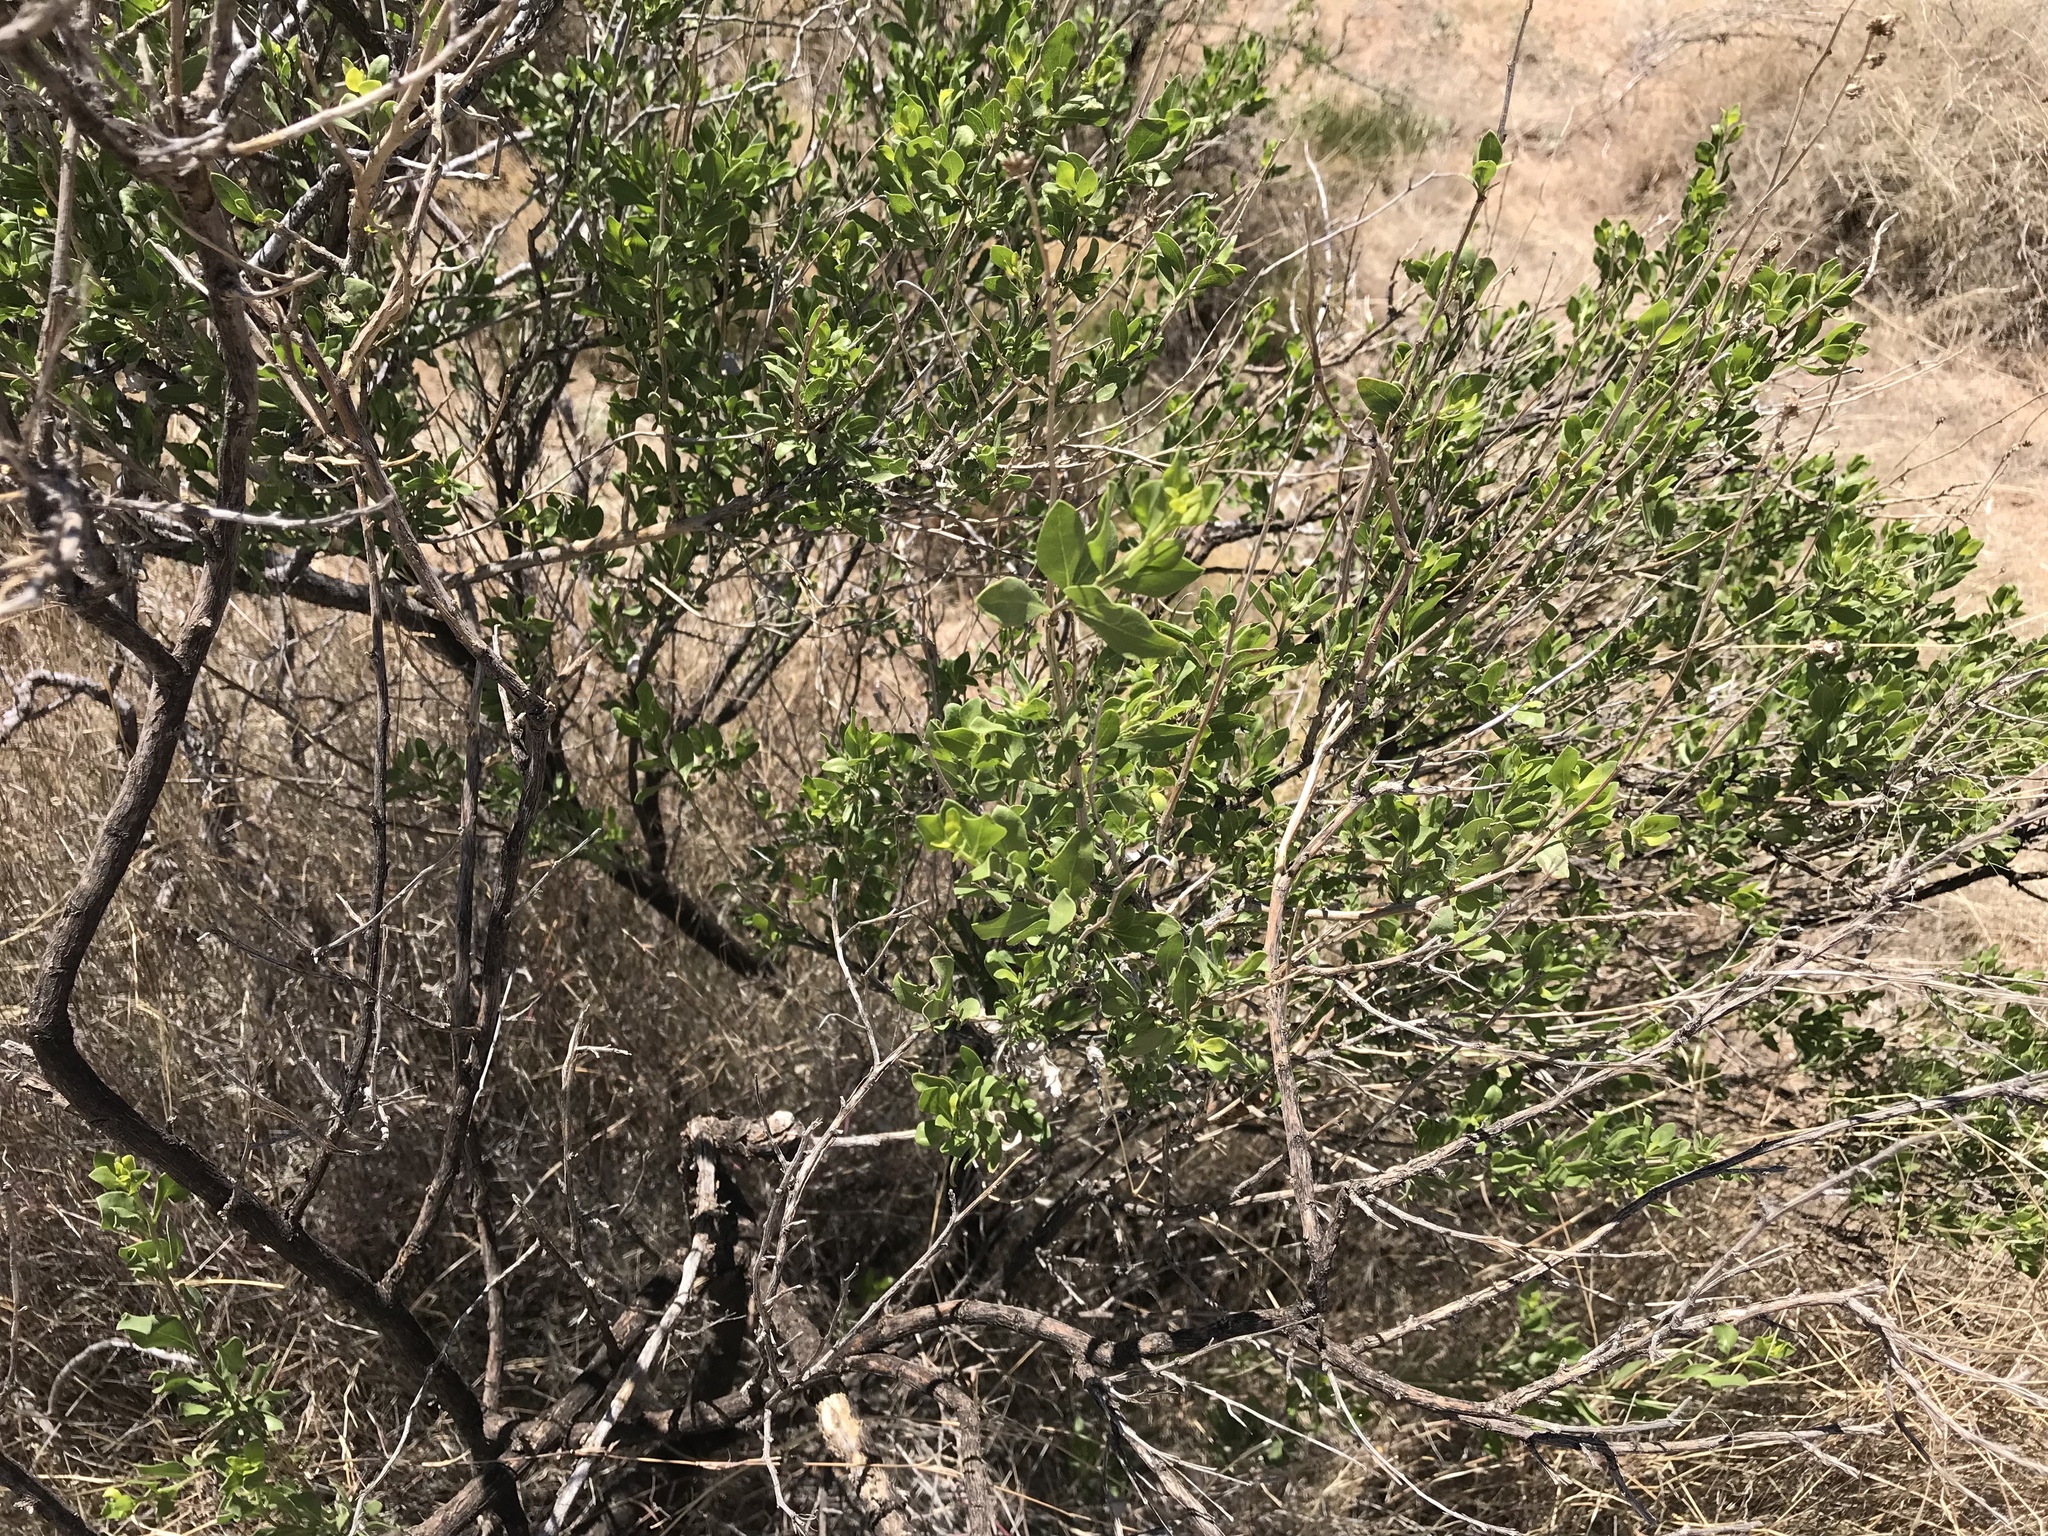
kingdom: Plantae
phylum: Tracheophyta
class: Magnoliopsida
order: Asterales
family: Asteraceae
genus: Flourensia
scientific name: Flourensia cernua
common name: Varnishbush
